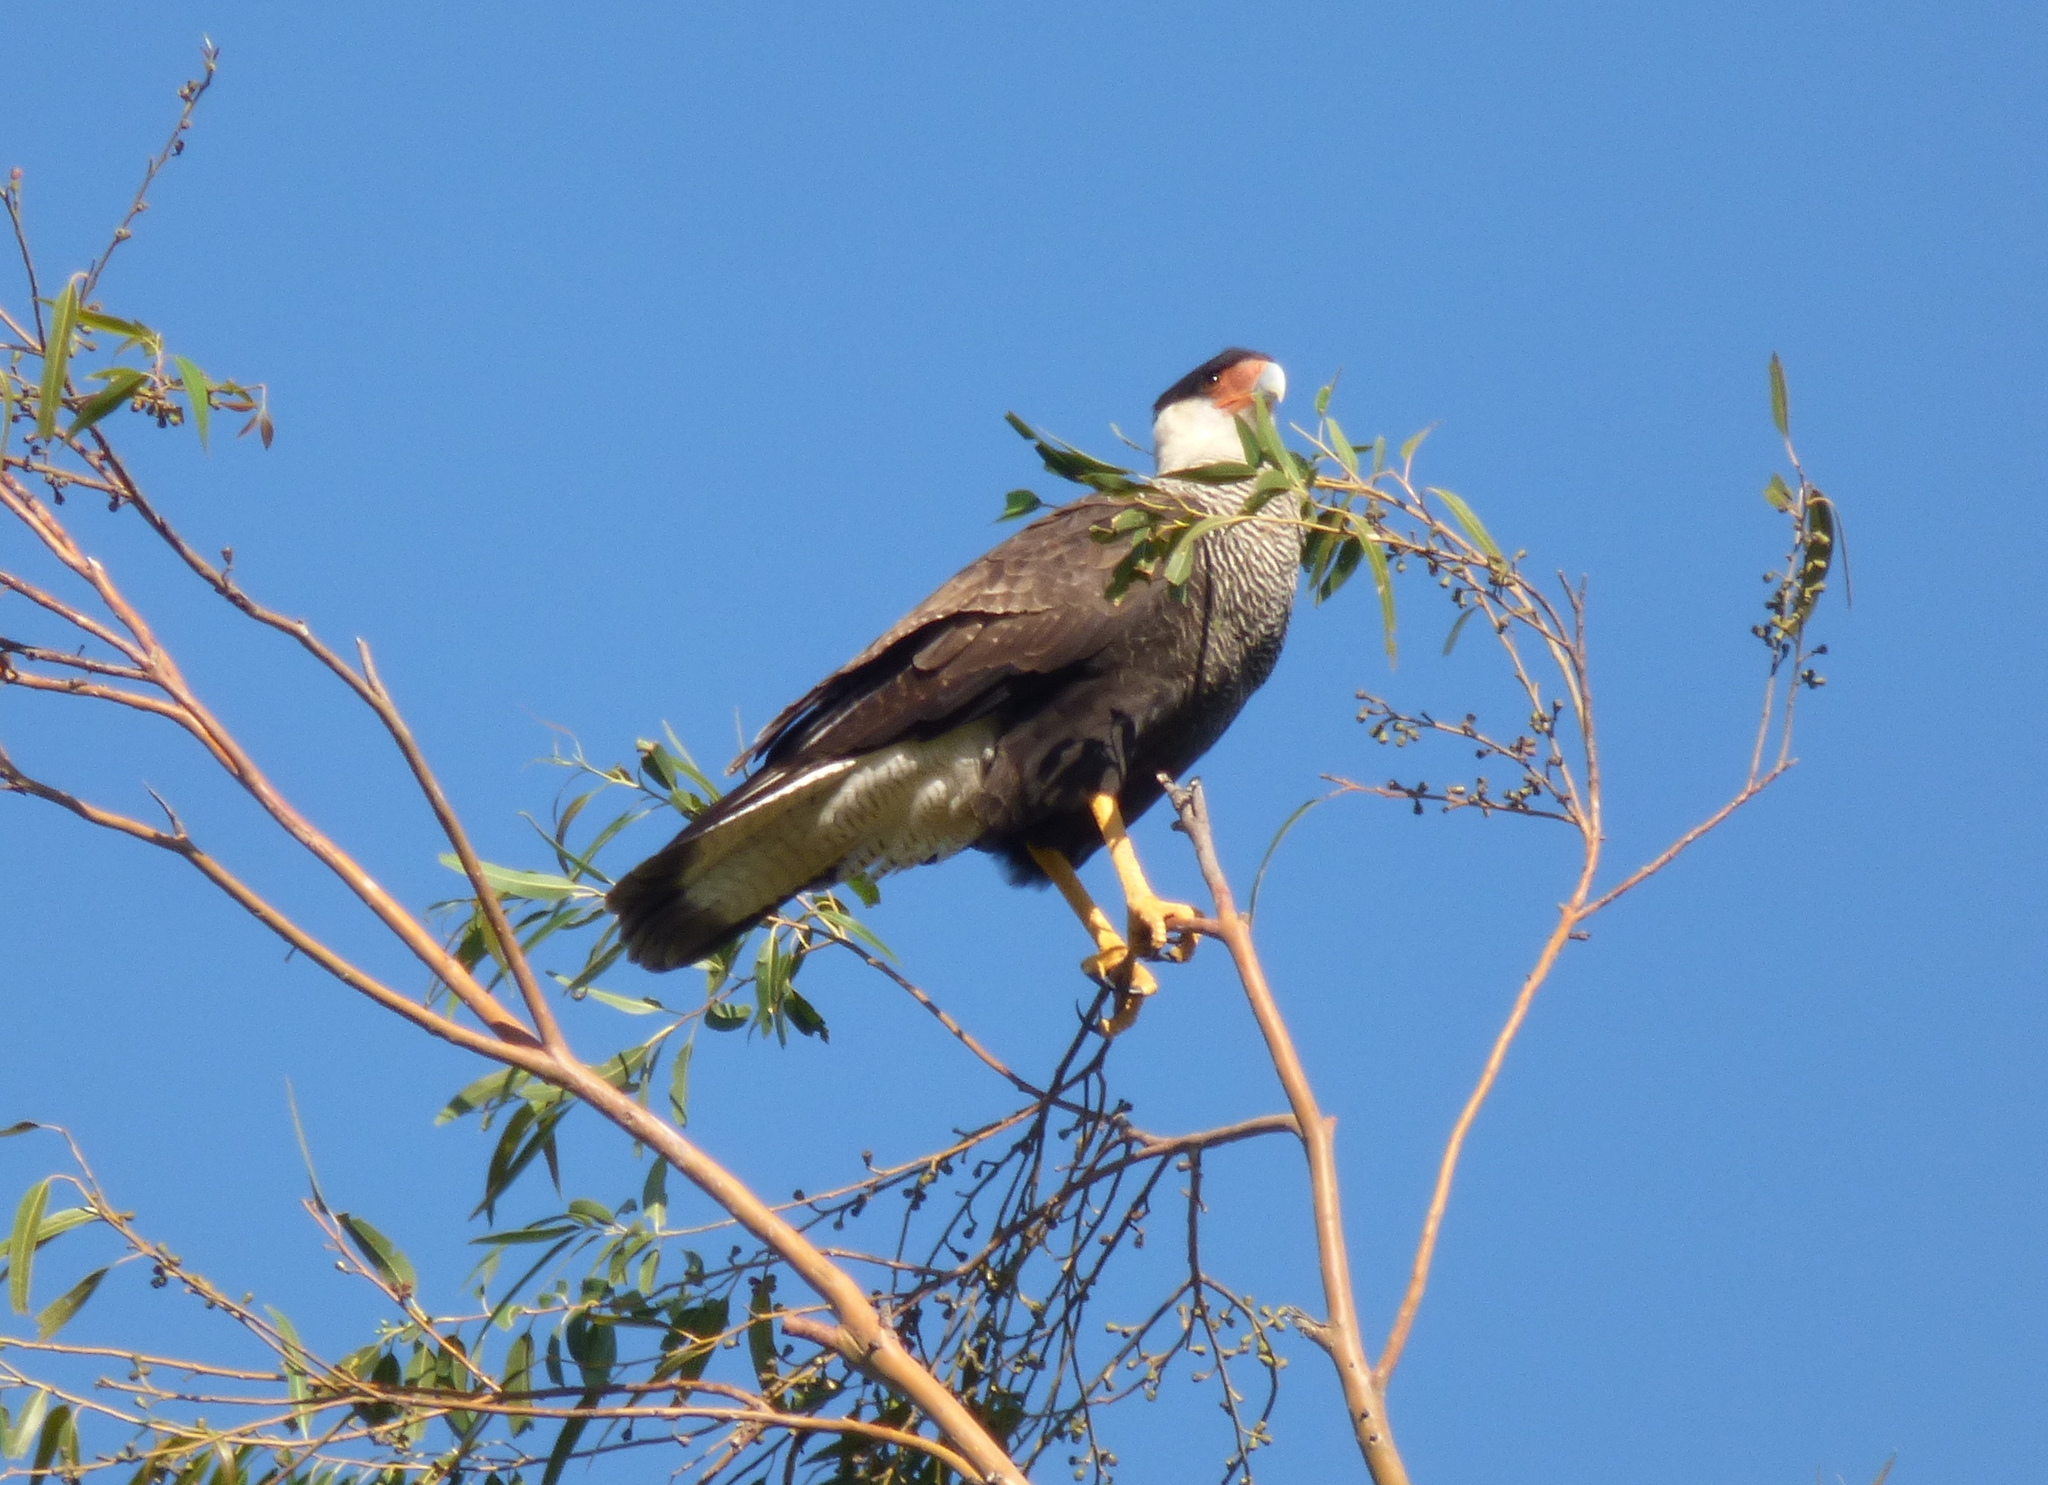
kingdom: Animalia
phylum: Chordata
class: Aves
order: Falconiformes
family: Falconidae
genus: Caracara
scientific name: Caracara plancus
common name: Southern caracara
